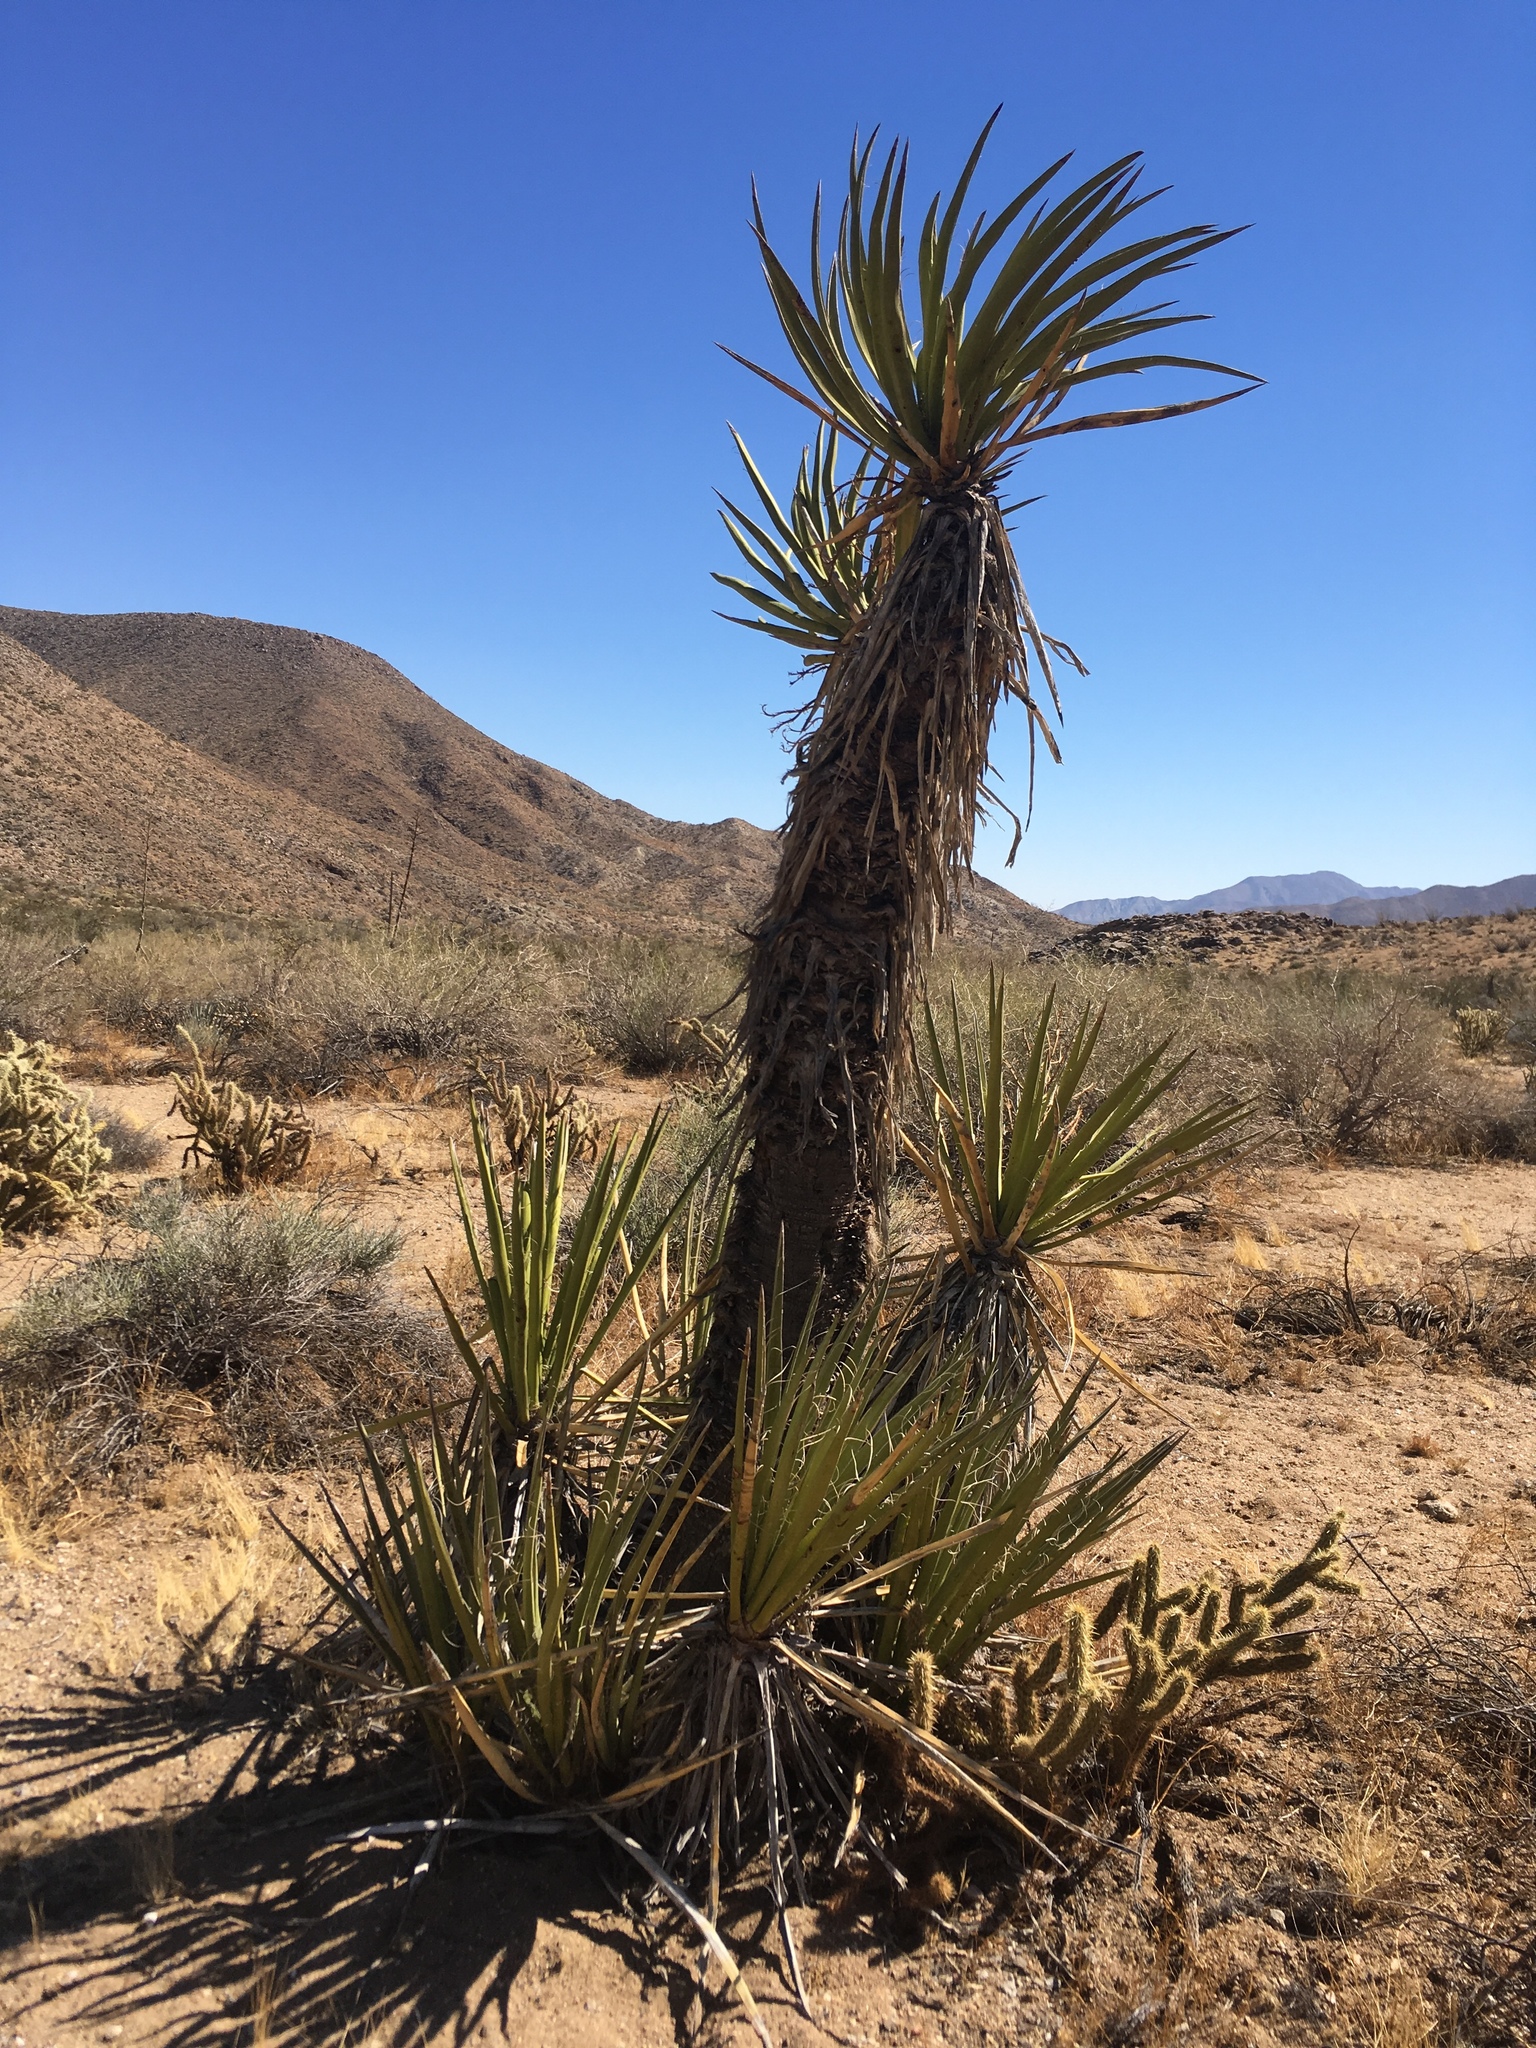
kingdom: Plantae
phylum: Tracheophyta
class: Liliopsida
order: Asparagales
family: Asparagaceae
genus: Yucca
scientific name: Yucca schidigera
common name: Mojave yucca
